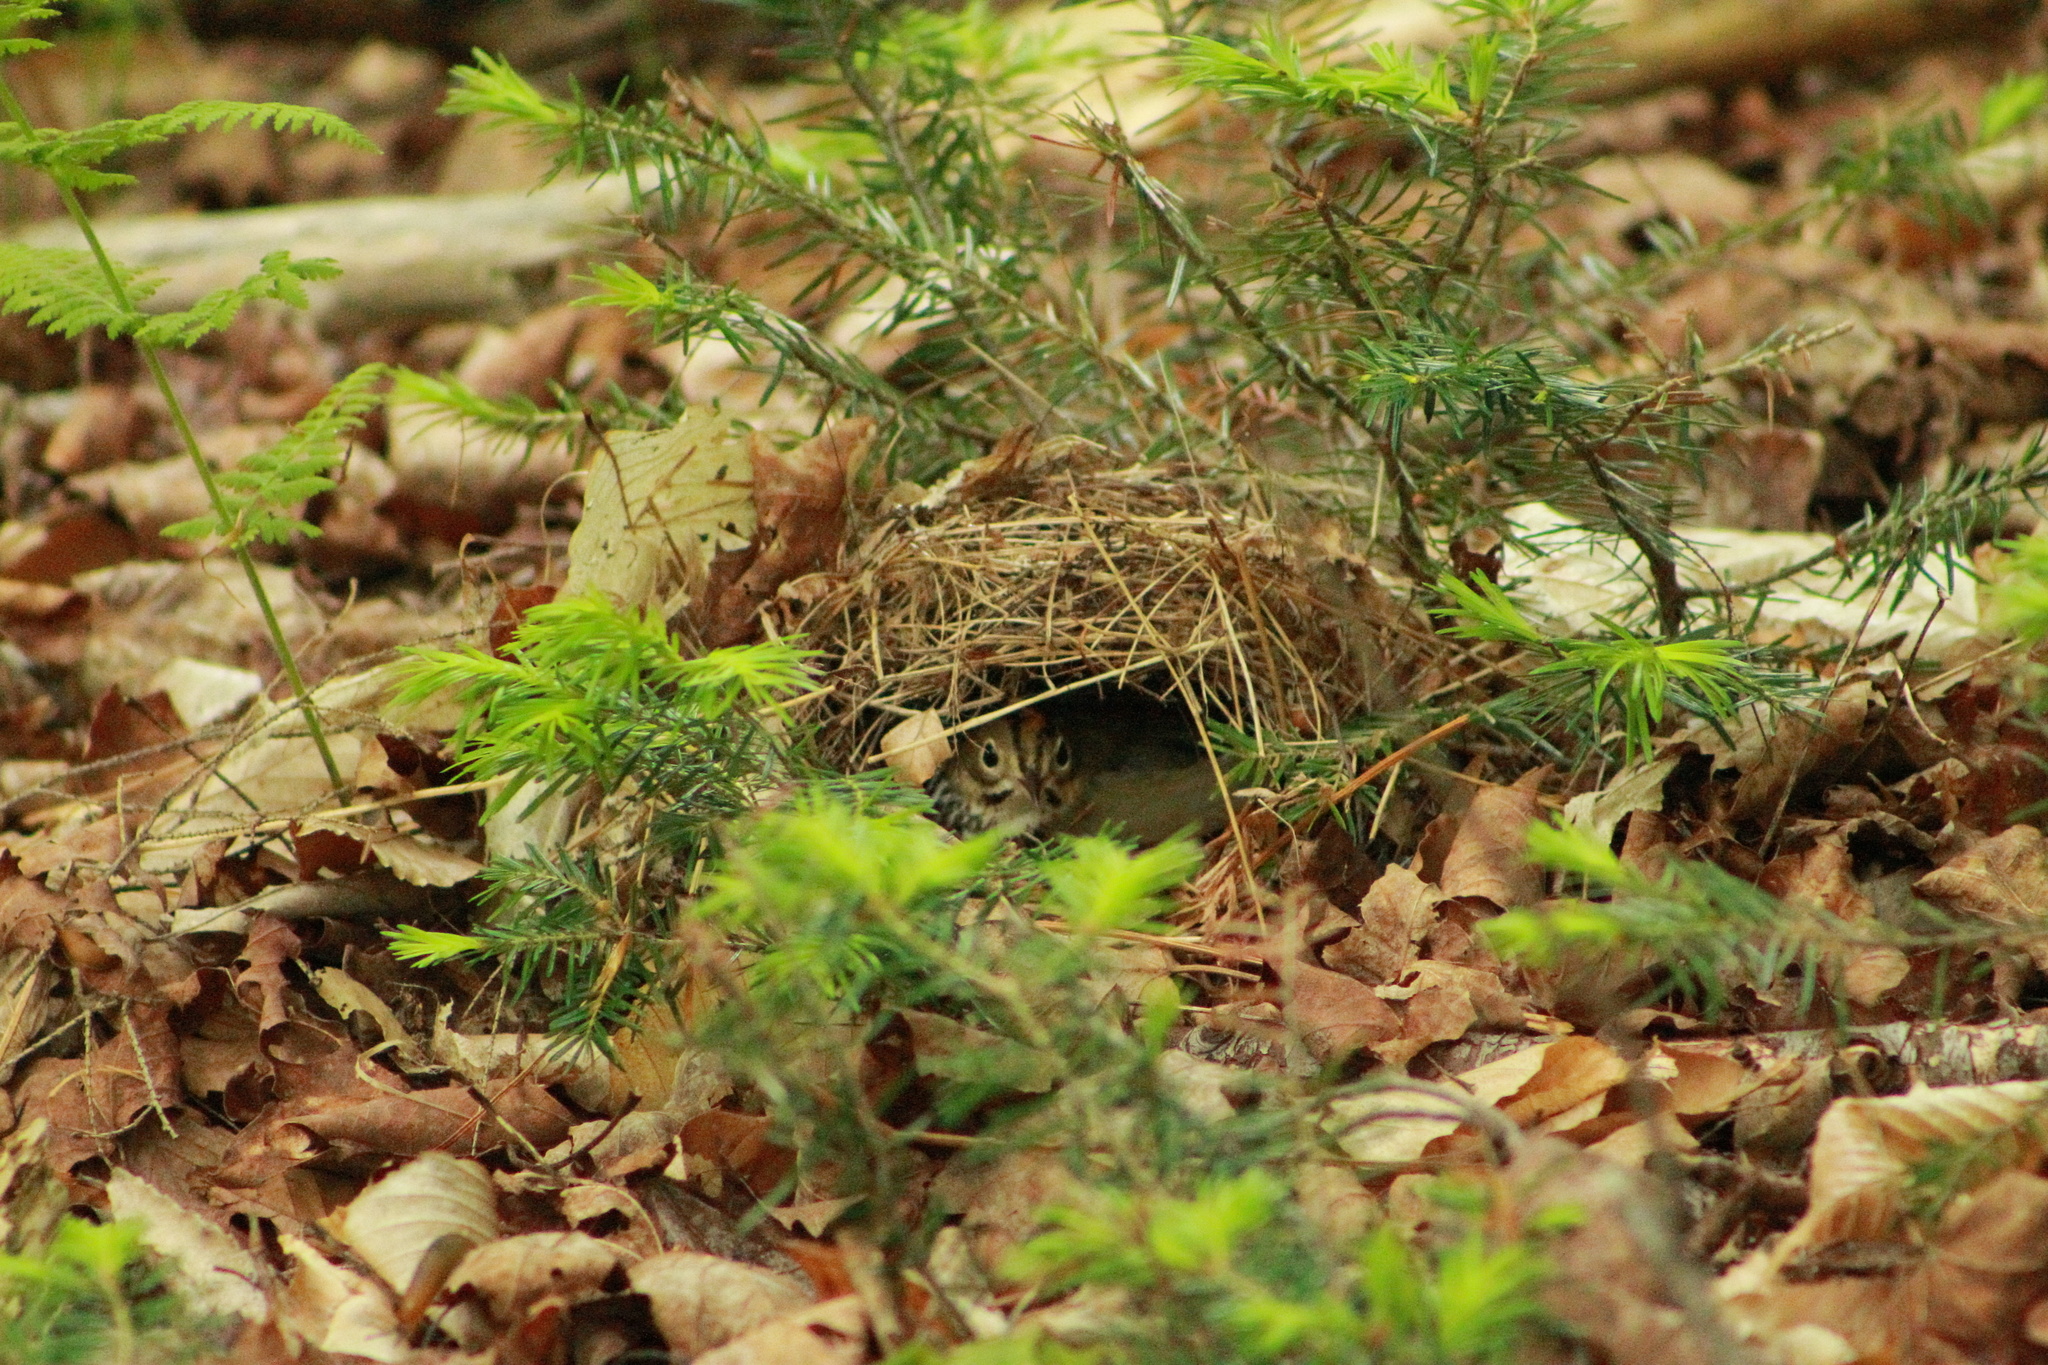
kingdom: Animalia
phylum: Chordata
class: Aves
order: Passeriformes
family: Parulidae
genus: Seiurus
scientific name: Seiurus aurocapilla
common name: Ovenbird
